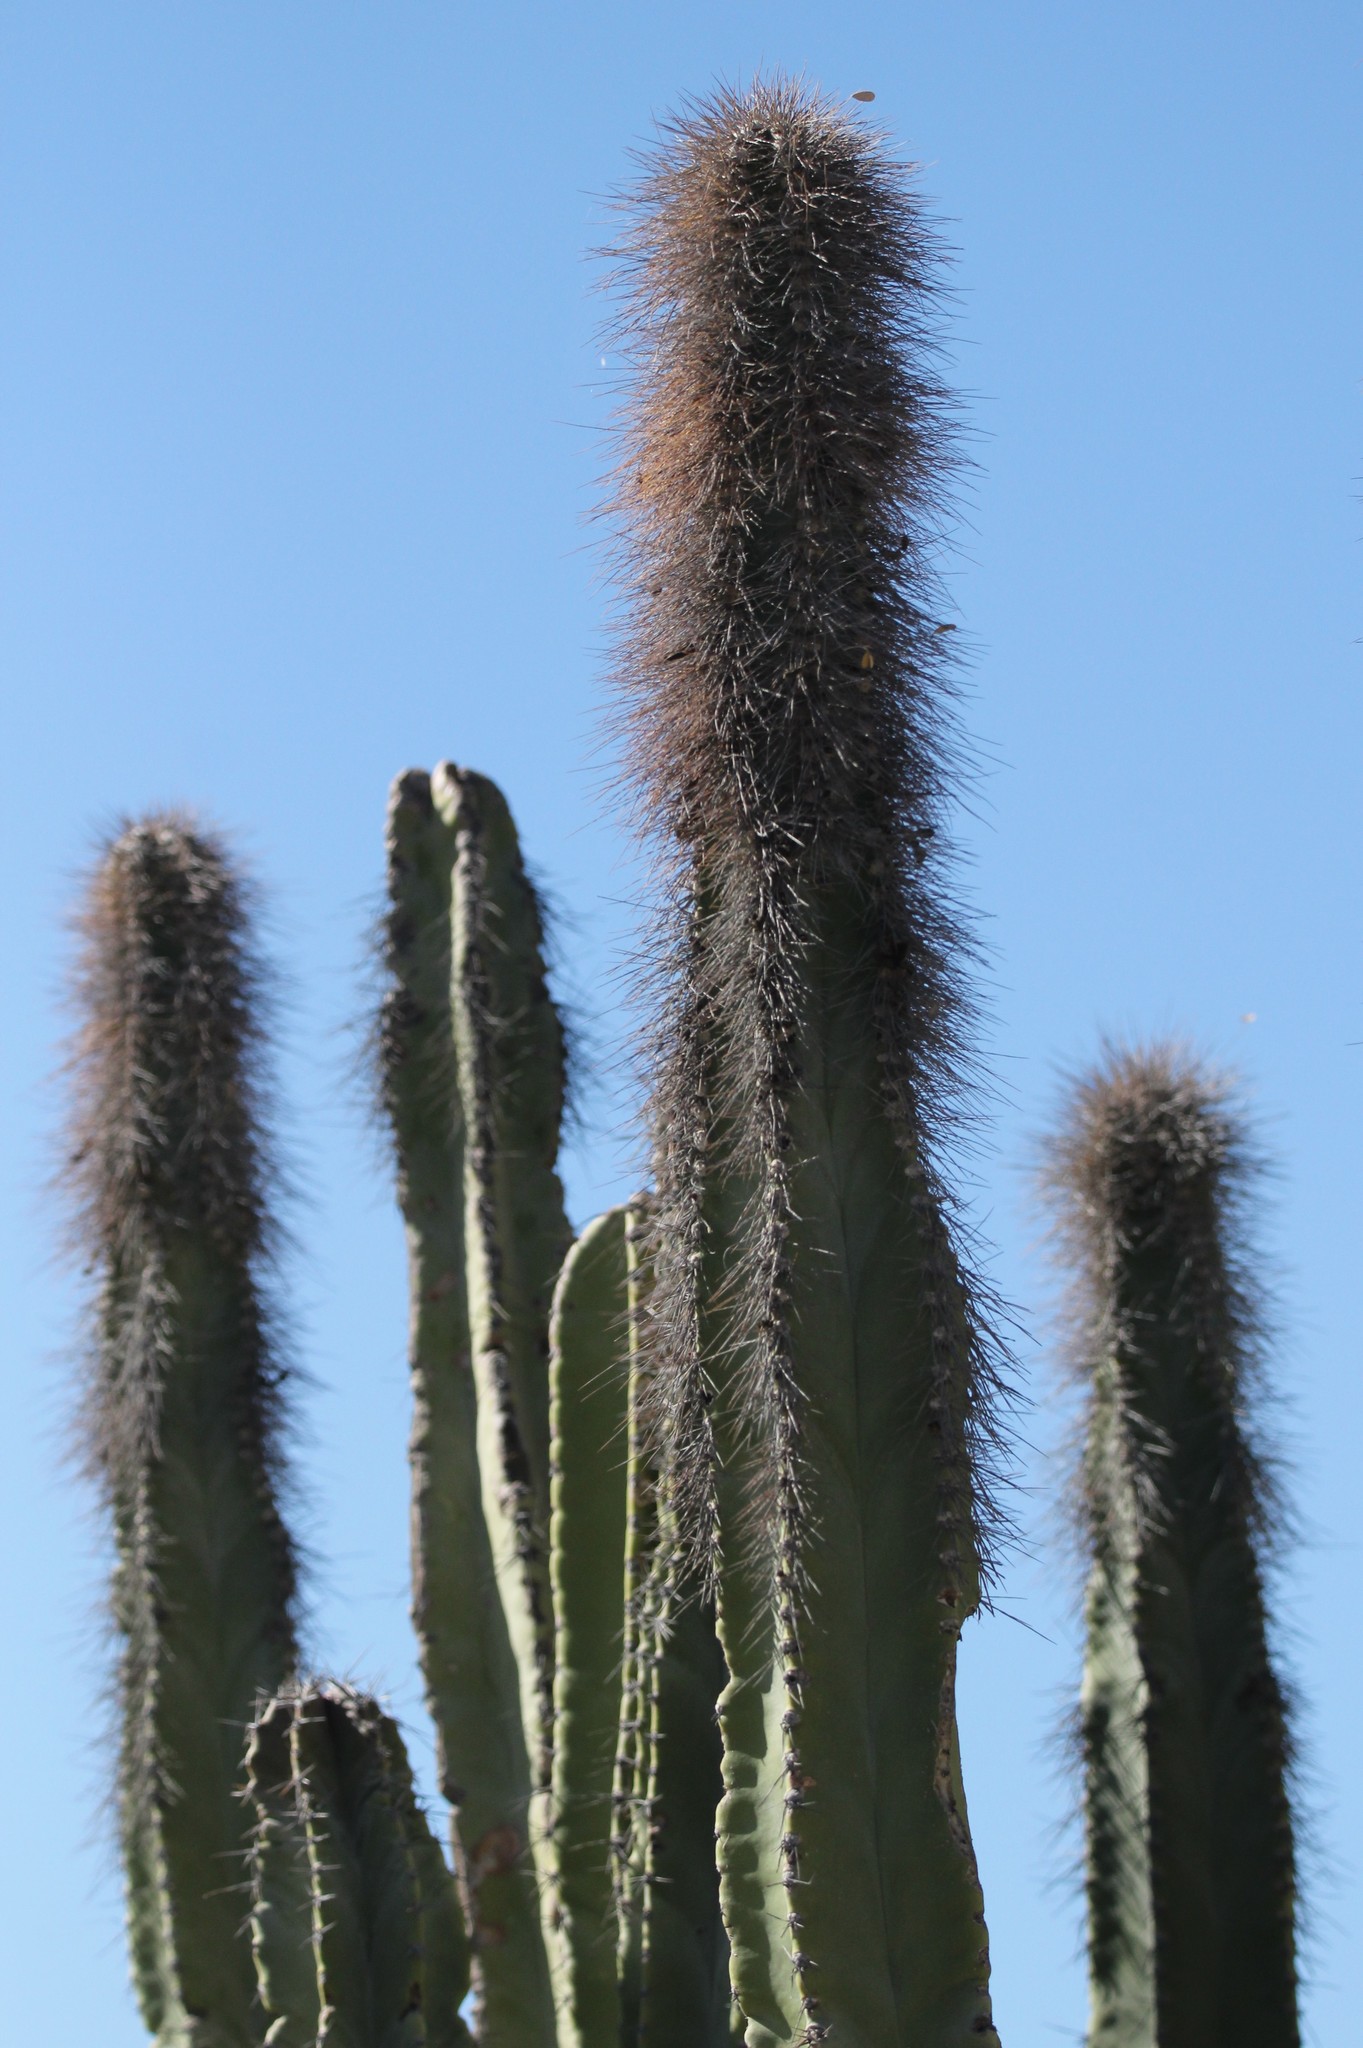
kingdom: Plantae
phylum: Tracheophyta
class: Magnoliopsida
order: Caryophyllales
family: Cactaceae
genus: Pachycereus
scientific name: Pachycereus schottii
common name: Senita cactus
